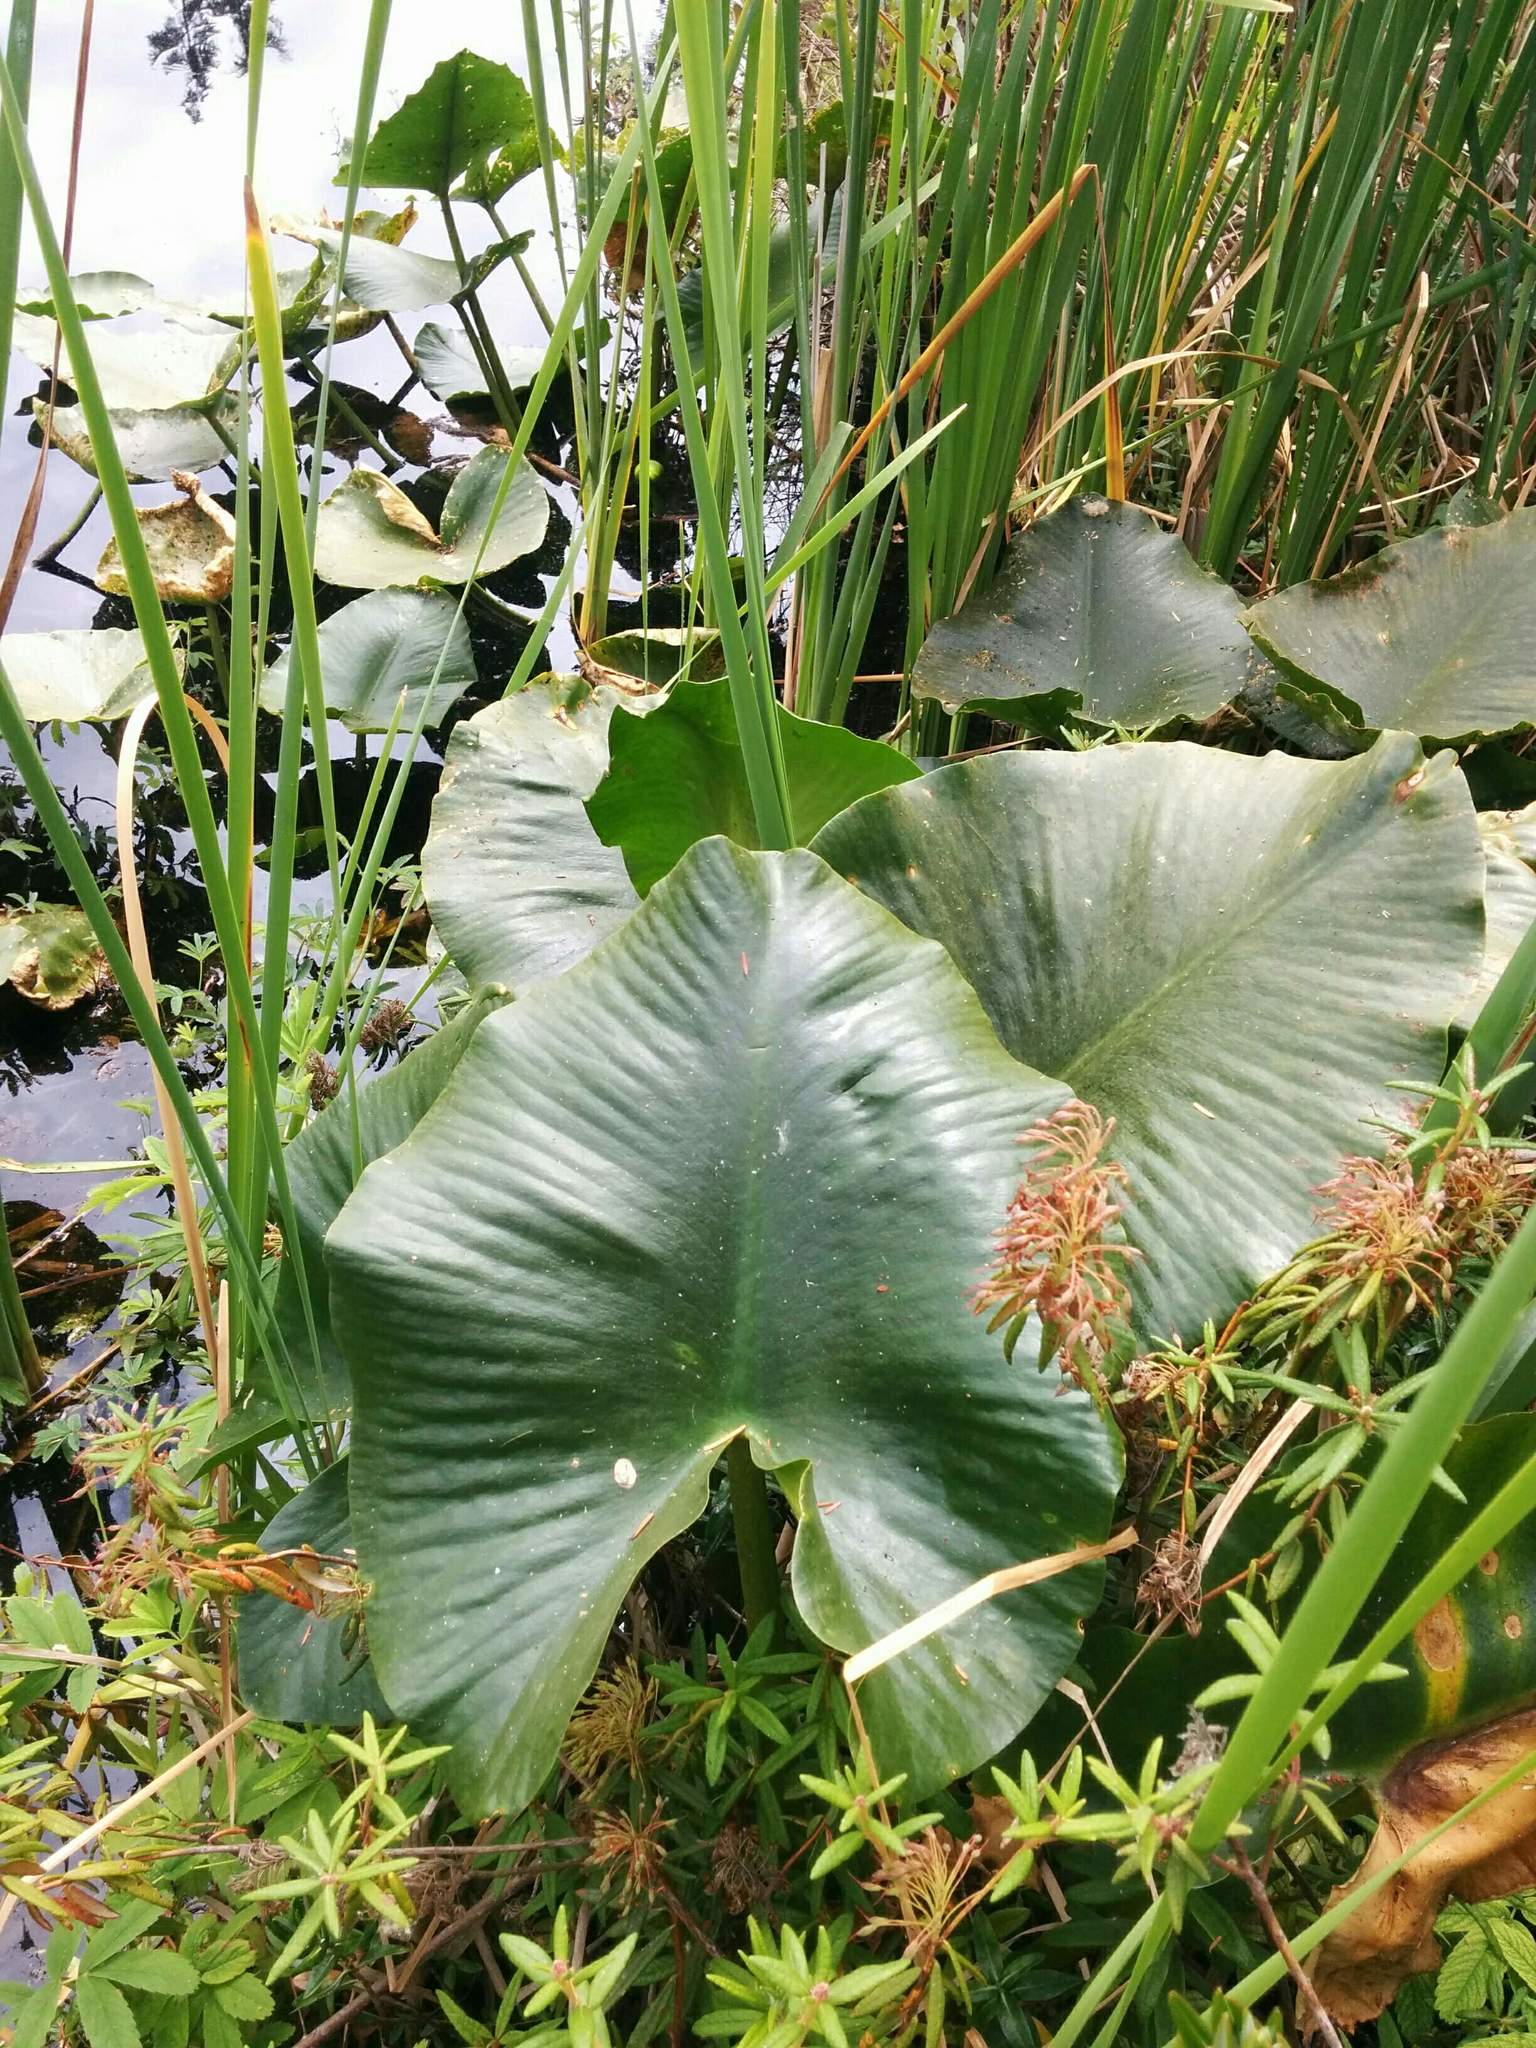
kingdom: Plantae
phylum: Tracheophyta
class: Magnoliopsida
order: Nymphaeales
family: Nymphaeaceae
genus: Nuphar
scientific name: Nuphar polysepala
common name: Rocky mountain cow-lily
